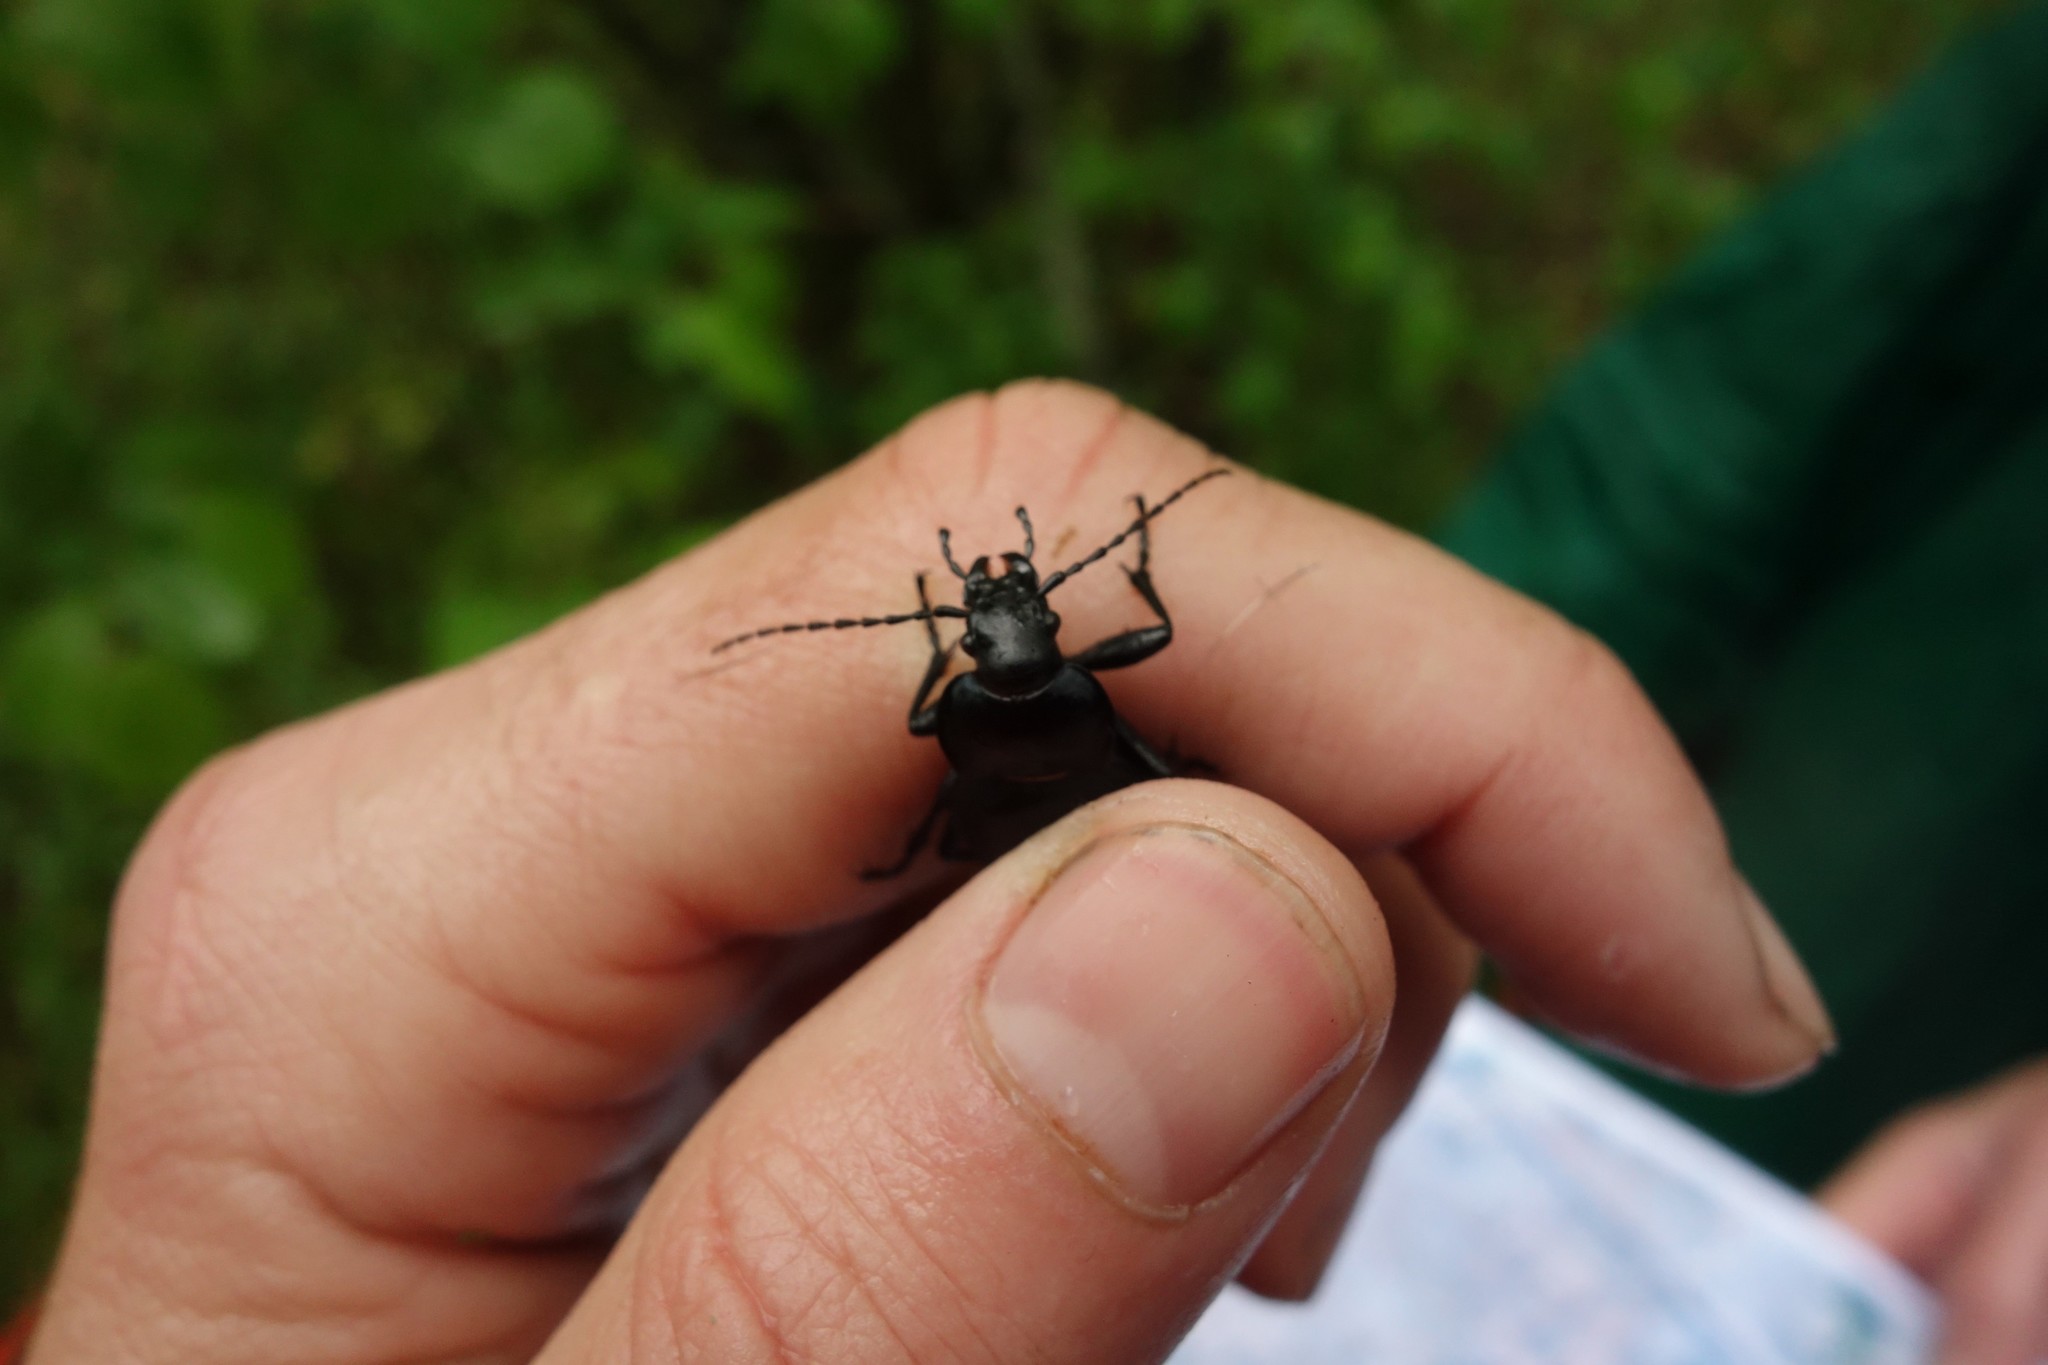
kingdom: Animalia
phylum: Arthropoda
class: Insecta
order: Coleoptera
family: Carabidae
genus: Carabus
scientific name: Carabus glabratus
